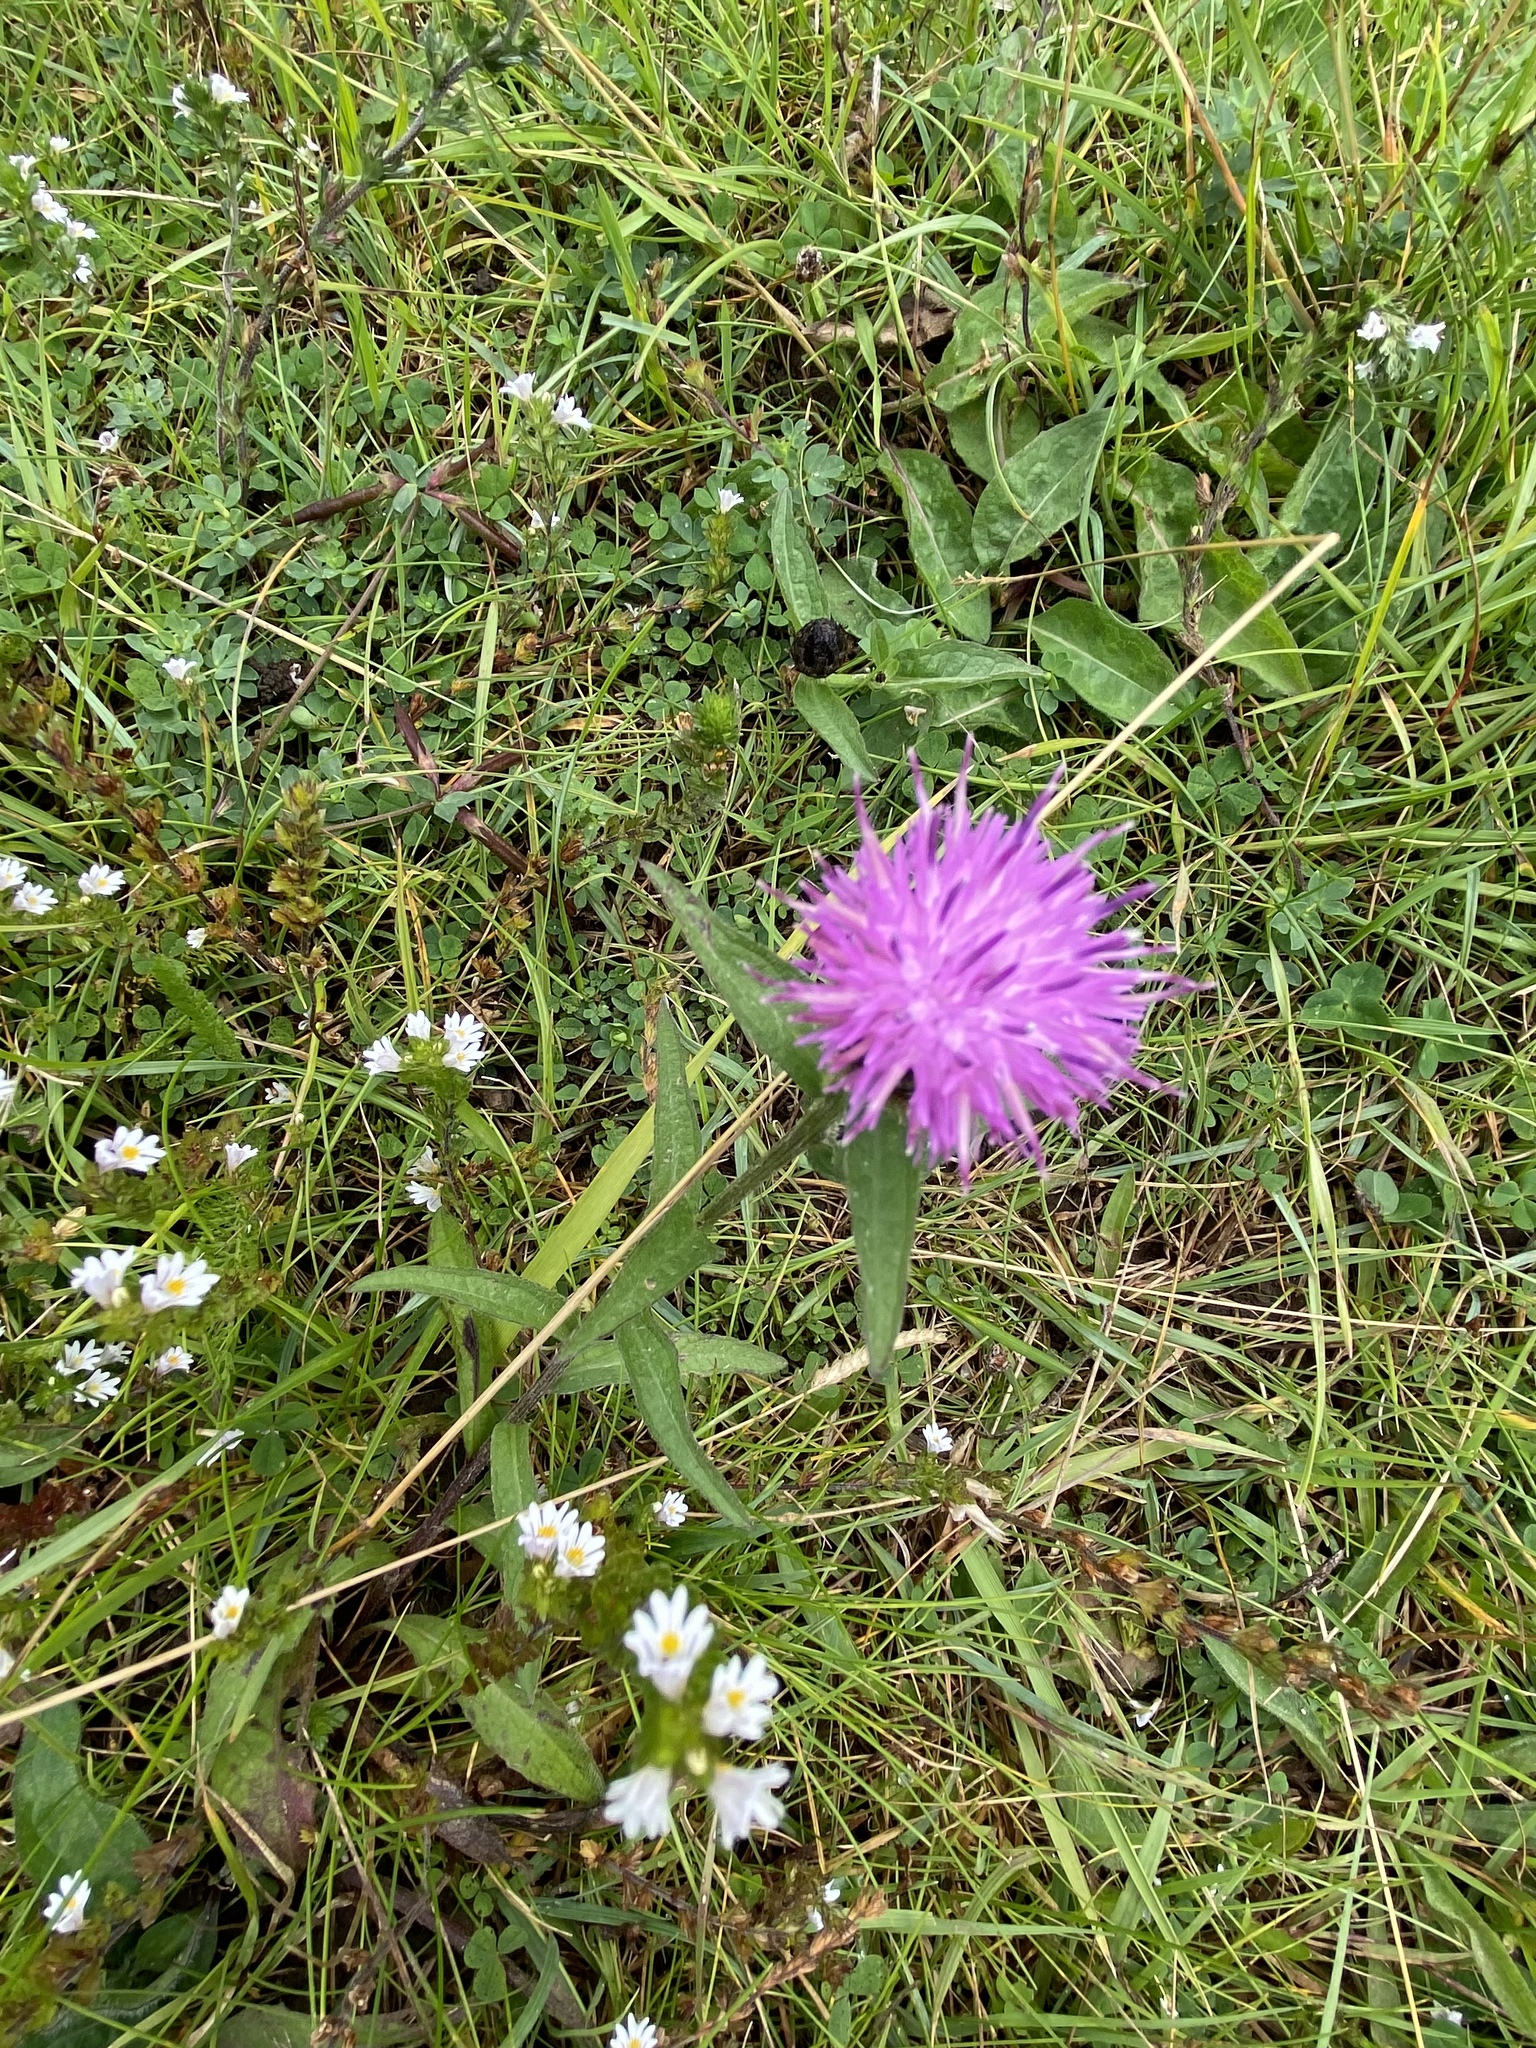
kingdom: Plantae
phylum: Tracheophyta
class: Magnoliopsida
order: Asterales
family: Asteraceae
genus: Centaurea
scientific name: Centaurea nigra
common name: Lesser knapweed
